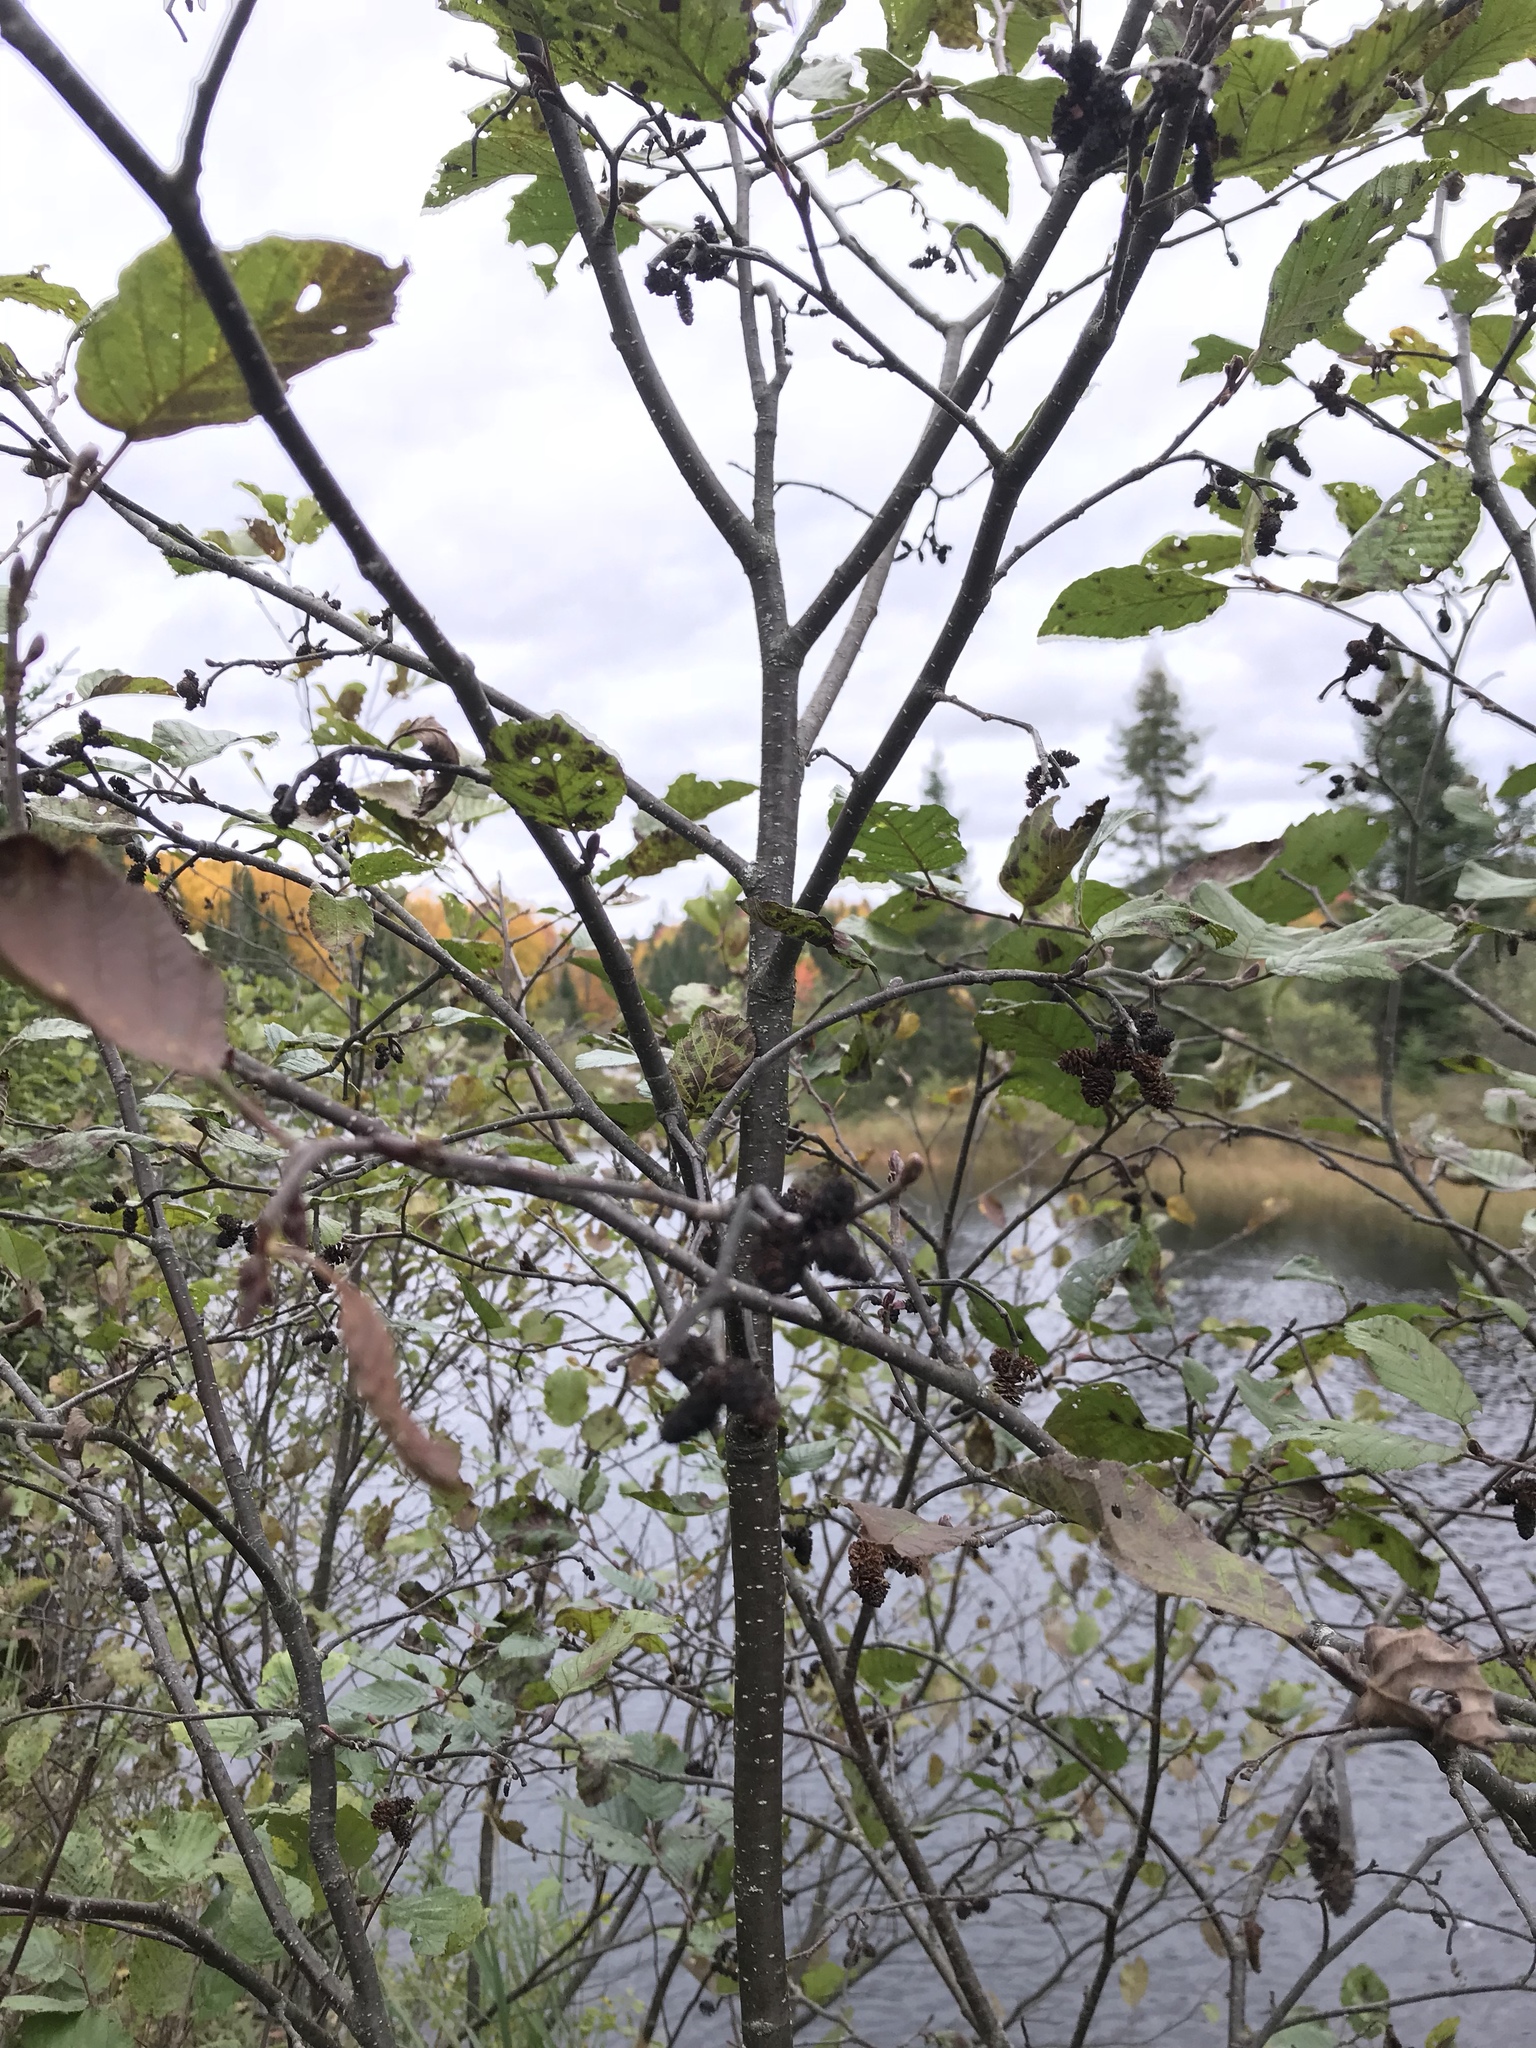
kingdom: Plantae
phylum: Tracheophyta
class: Magnoliopsida
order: Fagales
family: Betulaceae
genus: Alnus
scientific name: Alnus incana
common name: Grey alder
